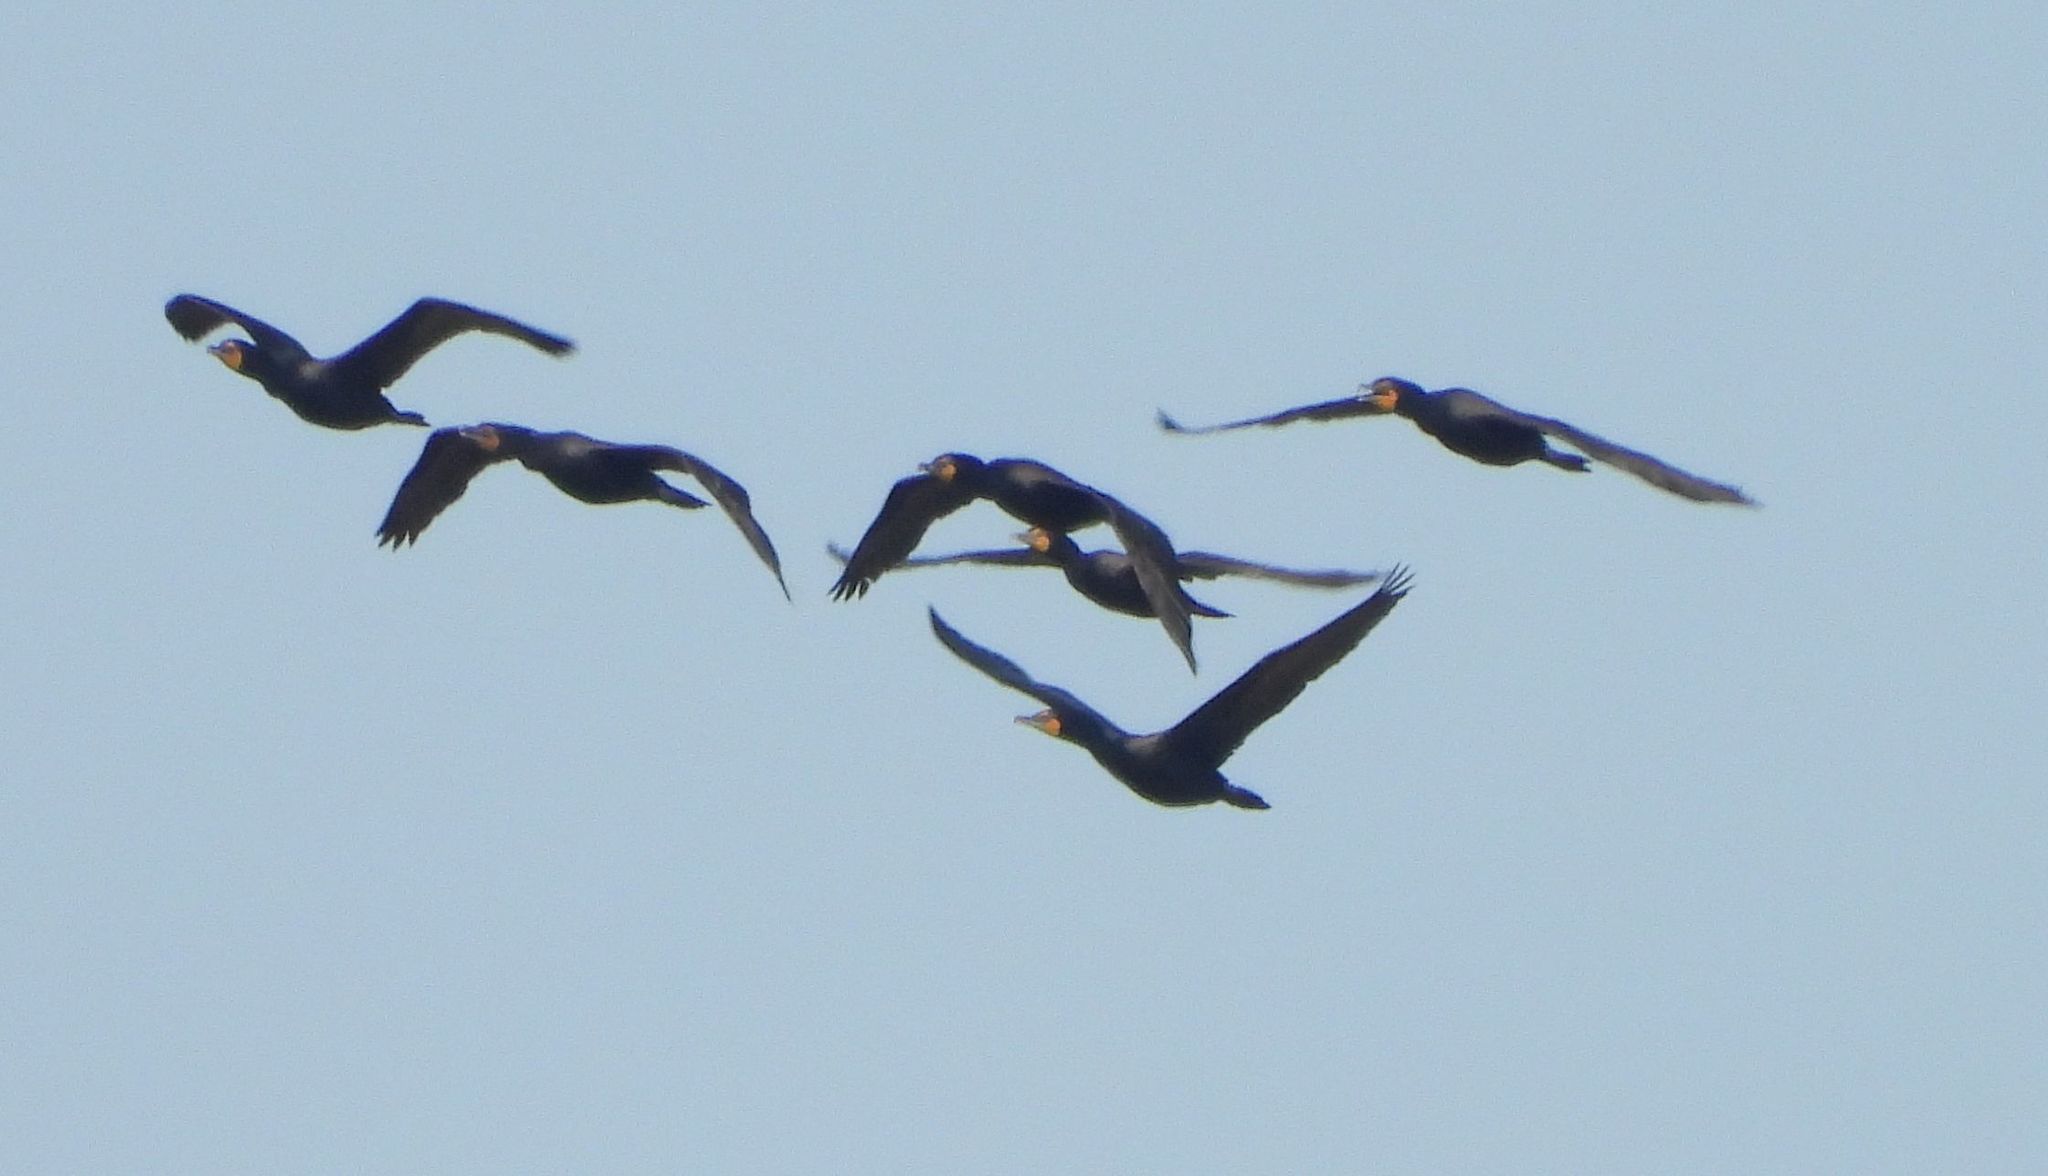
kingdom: Animalia
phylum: Chordata
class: Aves
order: Suliformes
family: Phalacrocoracidae
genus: Phalacrocorax
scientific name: Phalacrocorax auritus
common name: Double-crested cormorant
